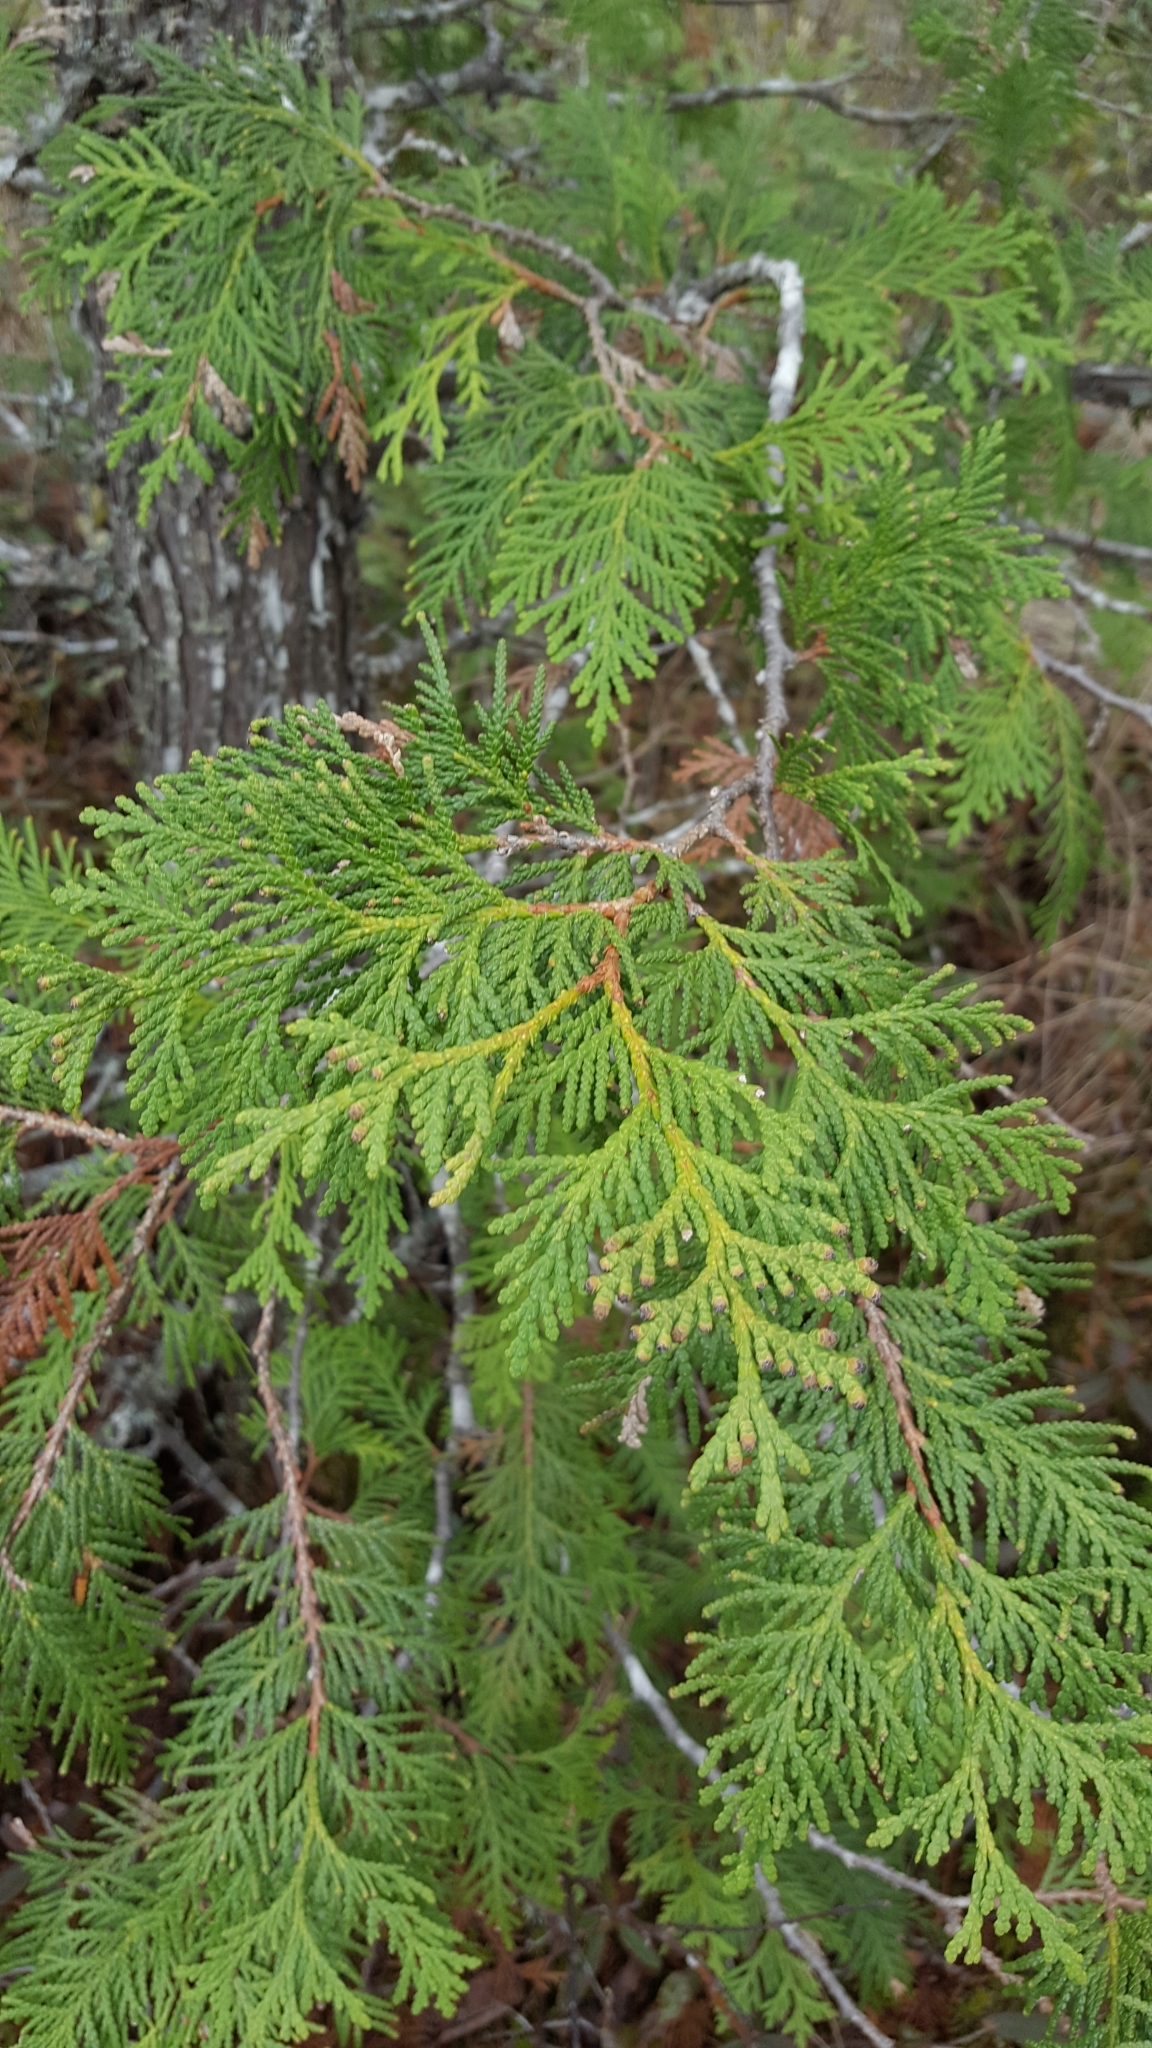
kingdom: Plantae
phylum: Tracheophyta
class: Pinopsida
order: Pinales
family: Cupressaceae
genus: Thuja
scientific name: Thuja occidentalis
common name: Northern white-cedar
